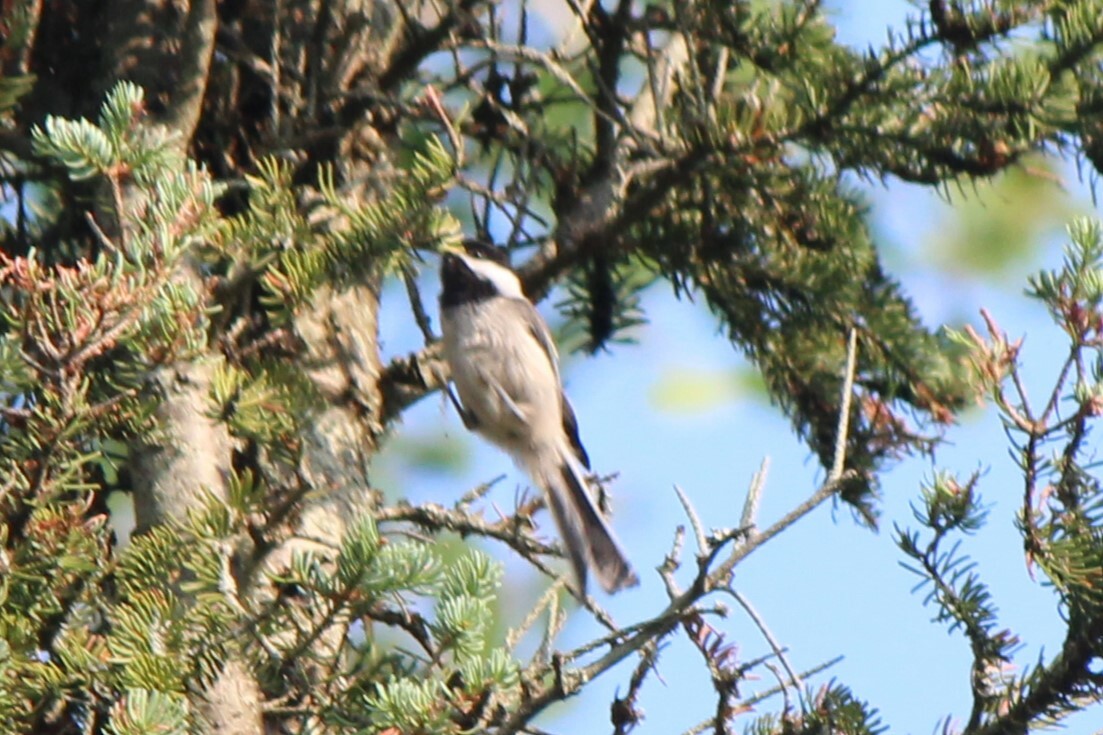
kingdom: Animalia
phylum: Chordata
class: Aves
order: Passeriformes
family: Paridae
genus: Poecile
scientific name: Poecile atricapillus
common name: Black-capped chickadee
